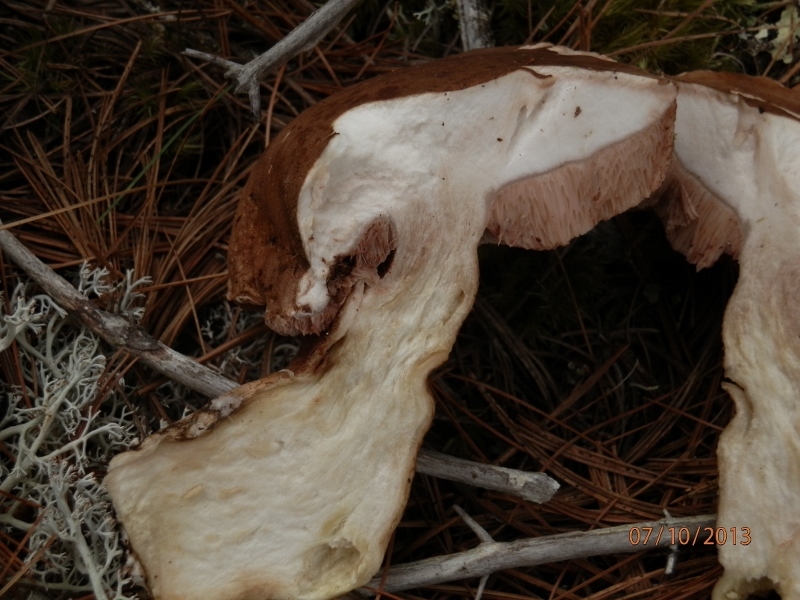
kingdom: Fungi
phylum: Basidiomycota
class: Agaricomycetes
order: Boletales
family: Boletaceae
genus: Tylopilus
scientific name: Tylopilus felleus
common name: Bitter bolete
